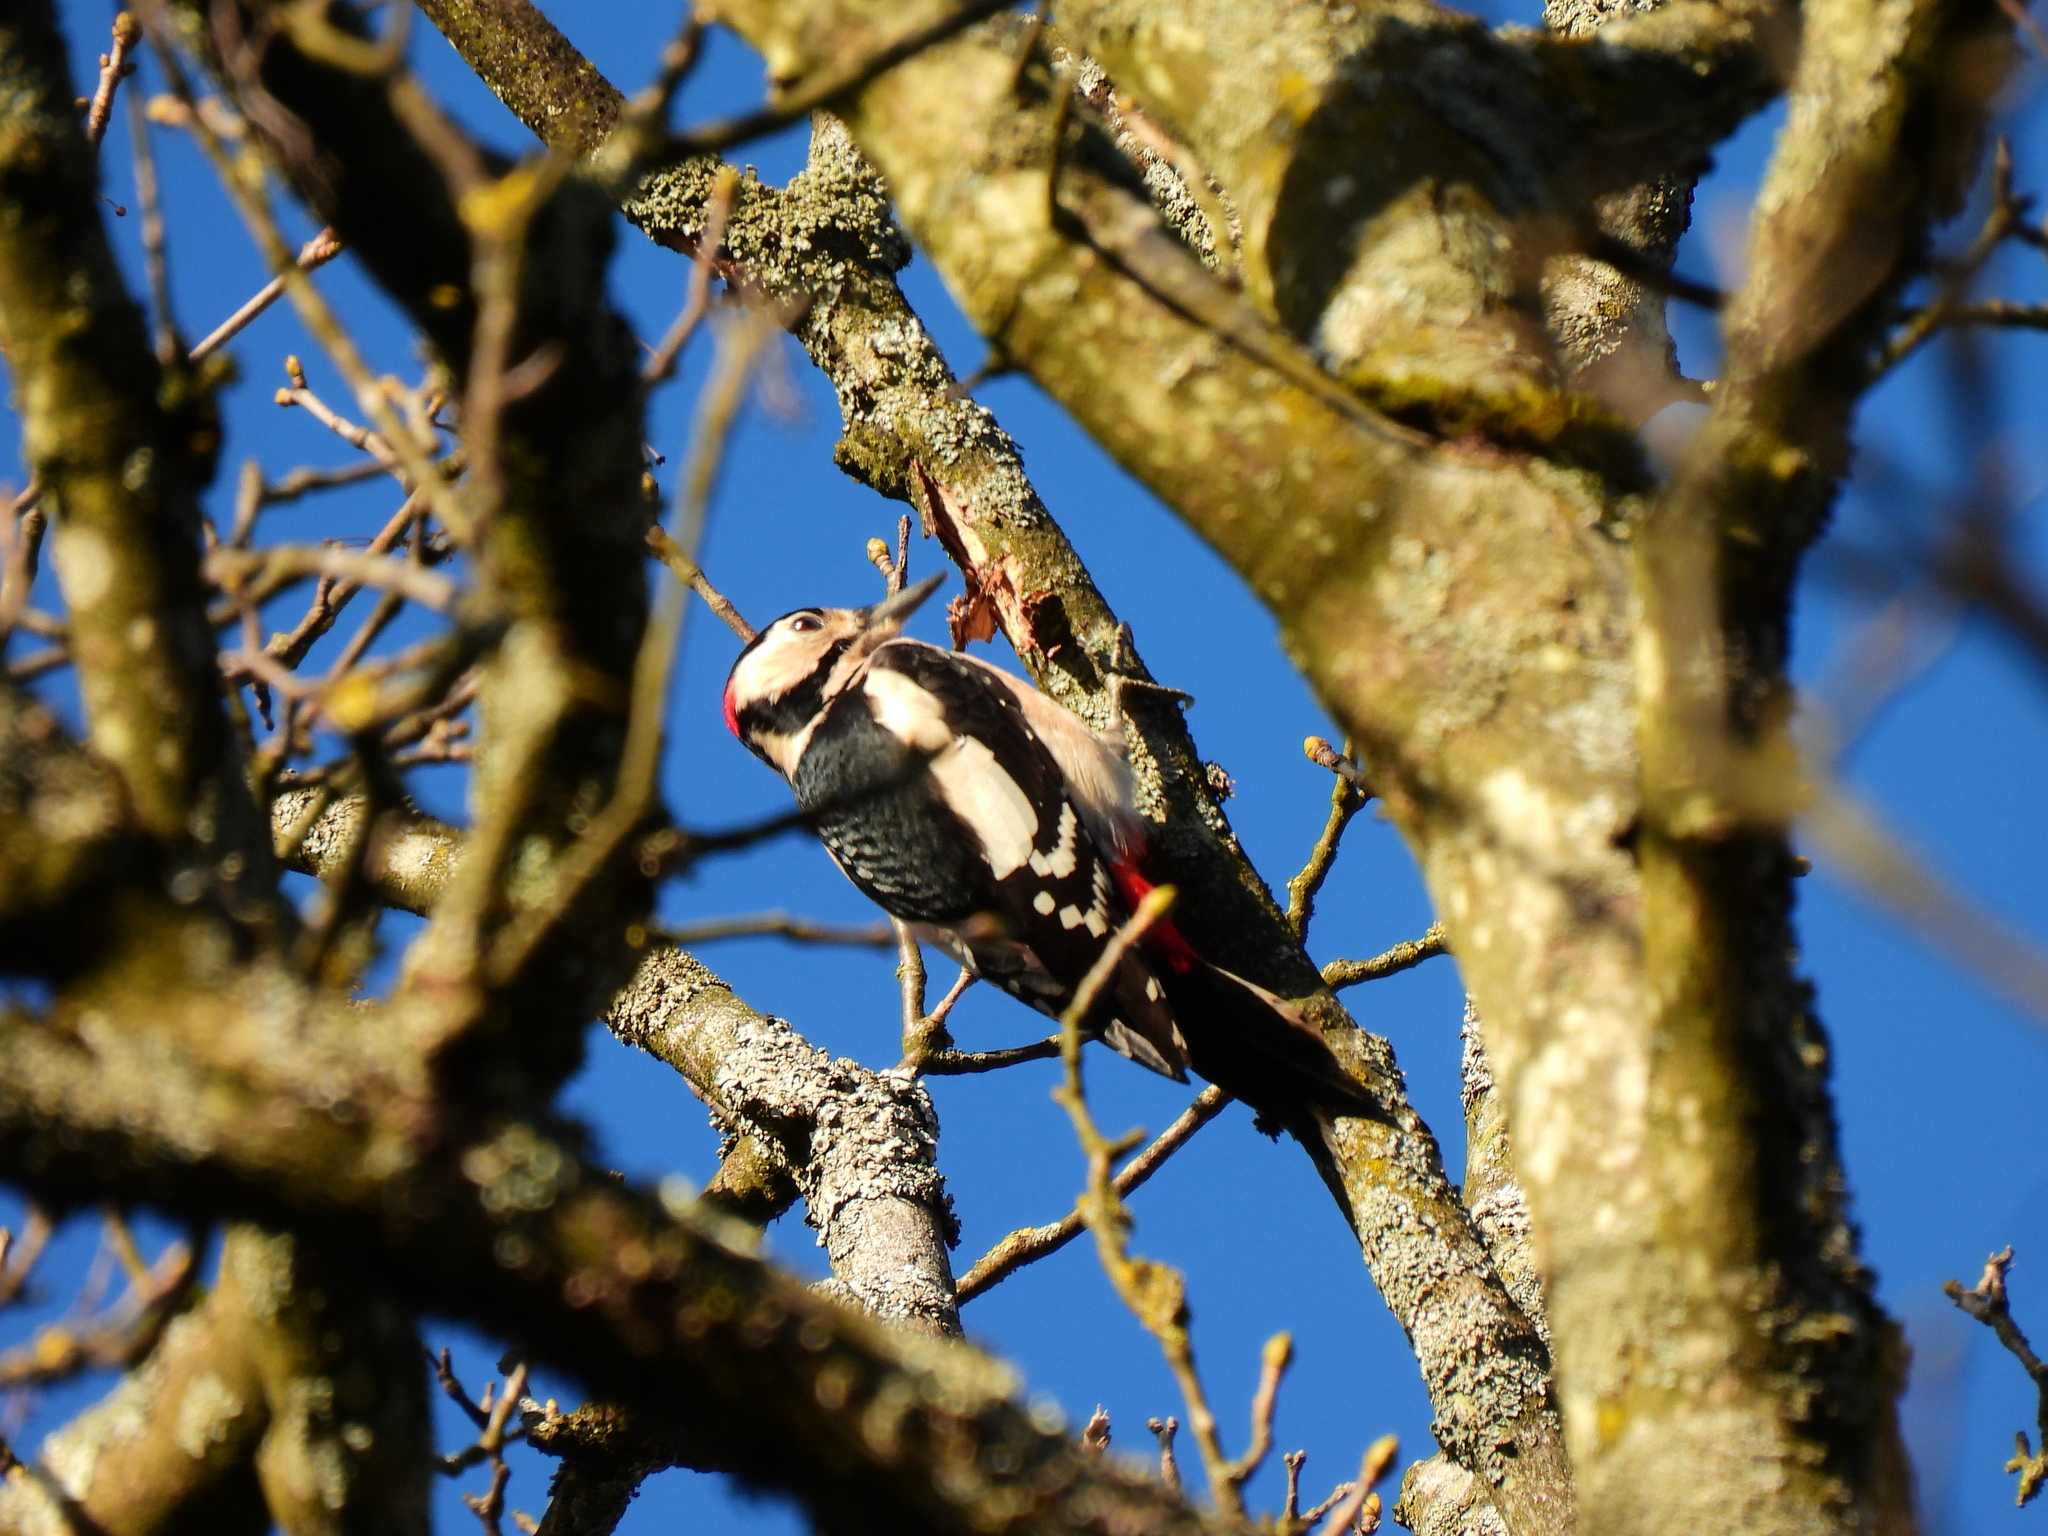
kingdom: Animalia
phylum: Chordata
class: Aves
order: Piciformes
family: Picidae
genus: Dendrocopos
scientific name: Dendrocopos major
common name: Great spotted woodpecker
